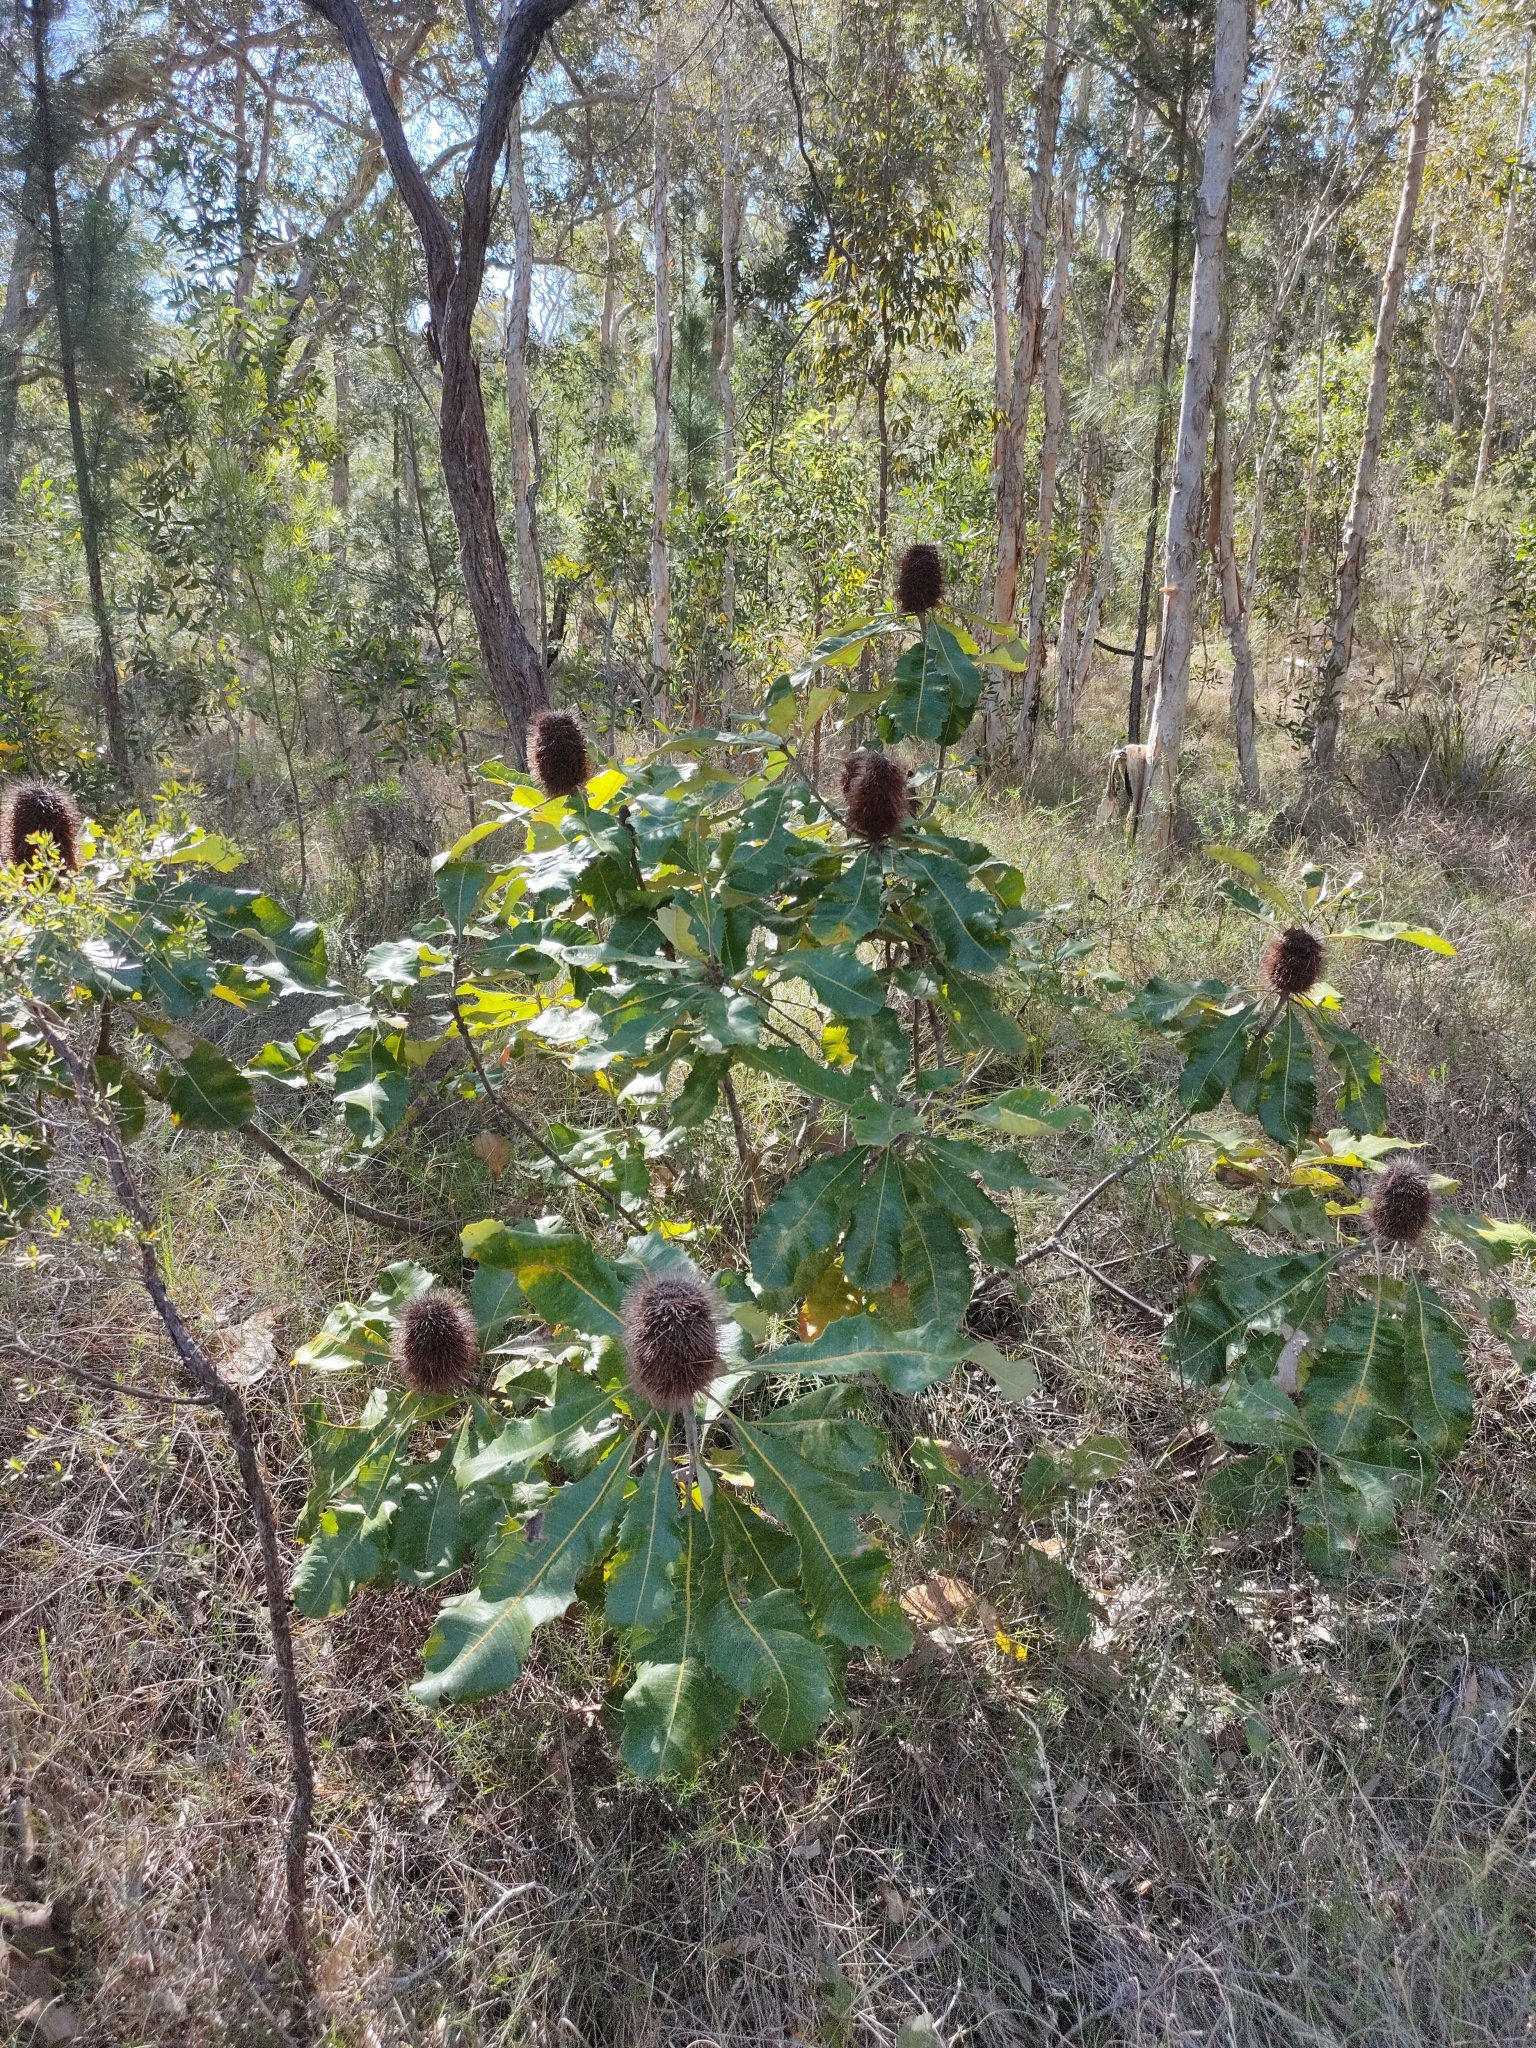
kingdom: Plantae
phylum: Tracheophyta
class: Magnoliopsida
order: Proteales
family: Proteaceae
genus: Banksia
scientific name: Banksia robur
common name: Broadleaf banksia
